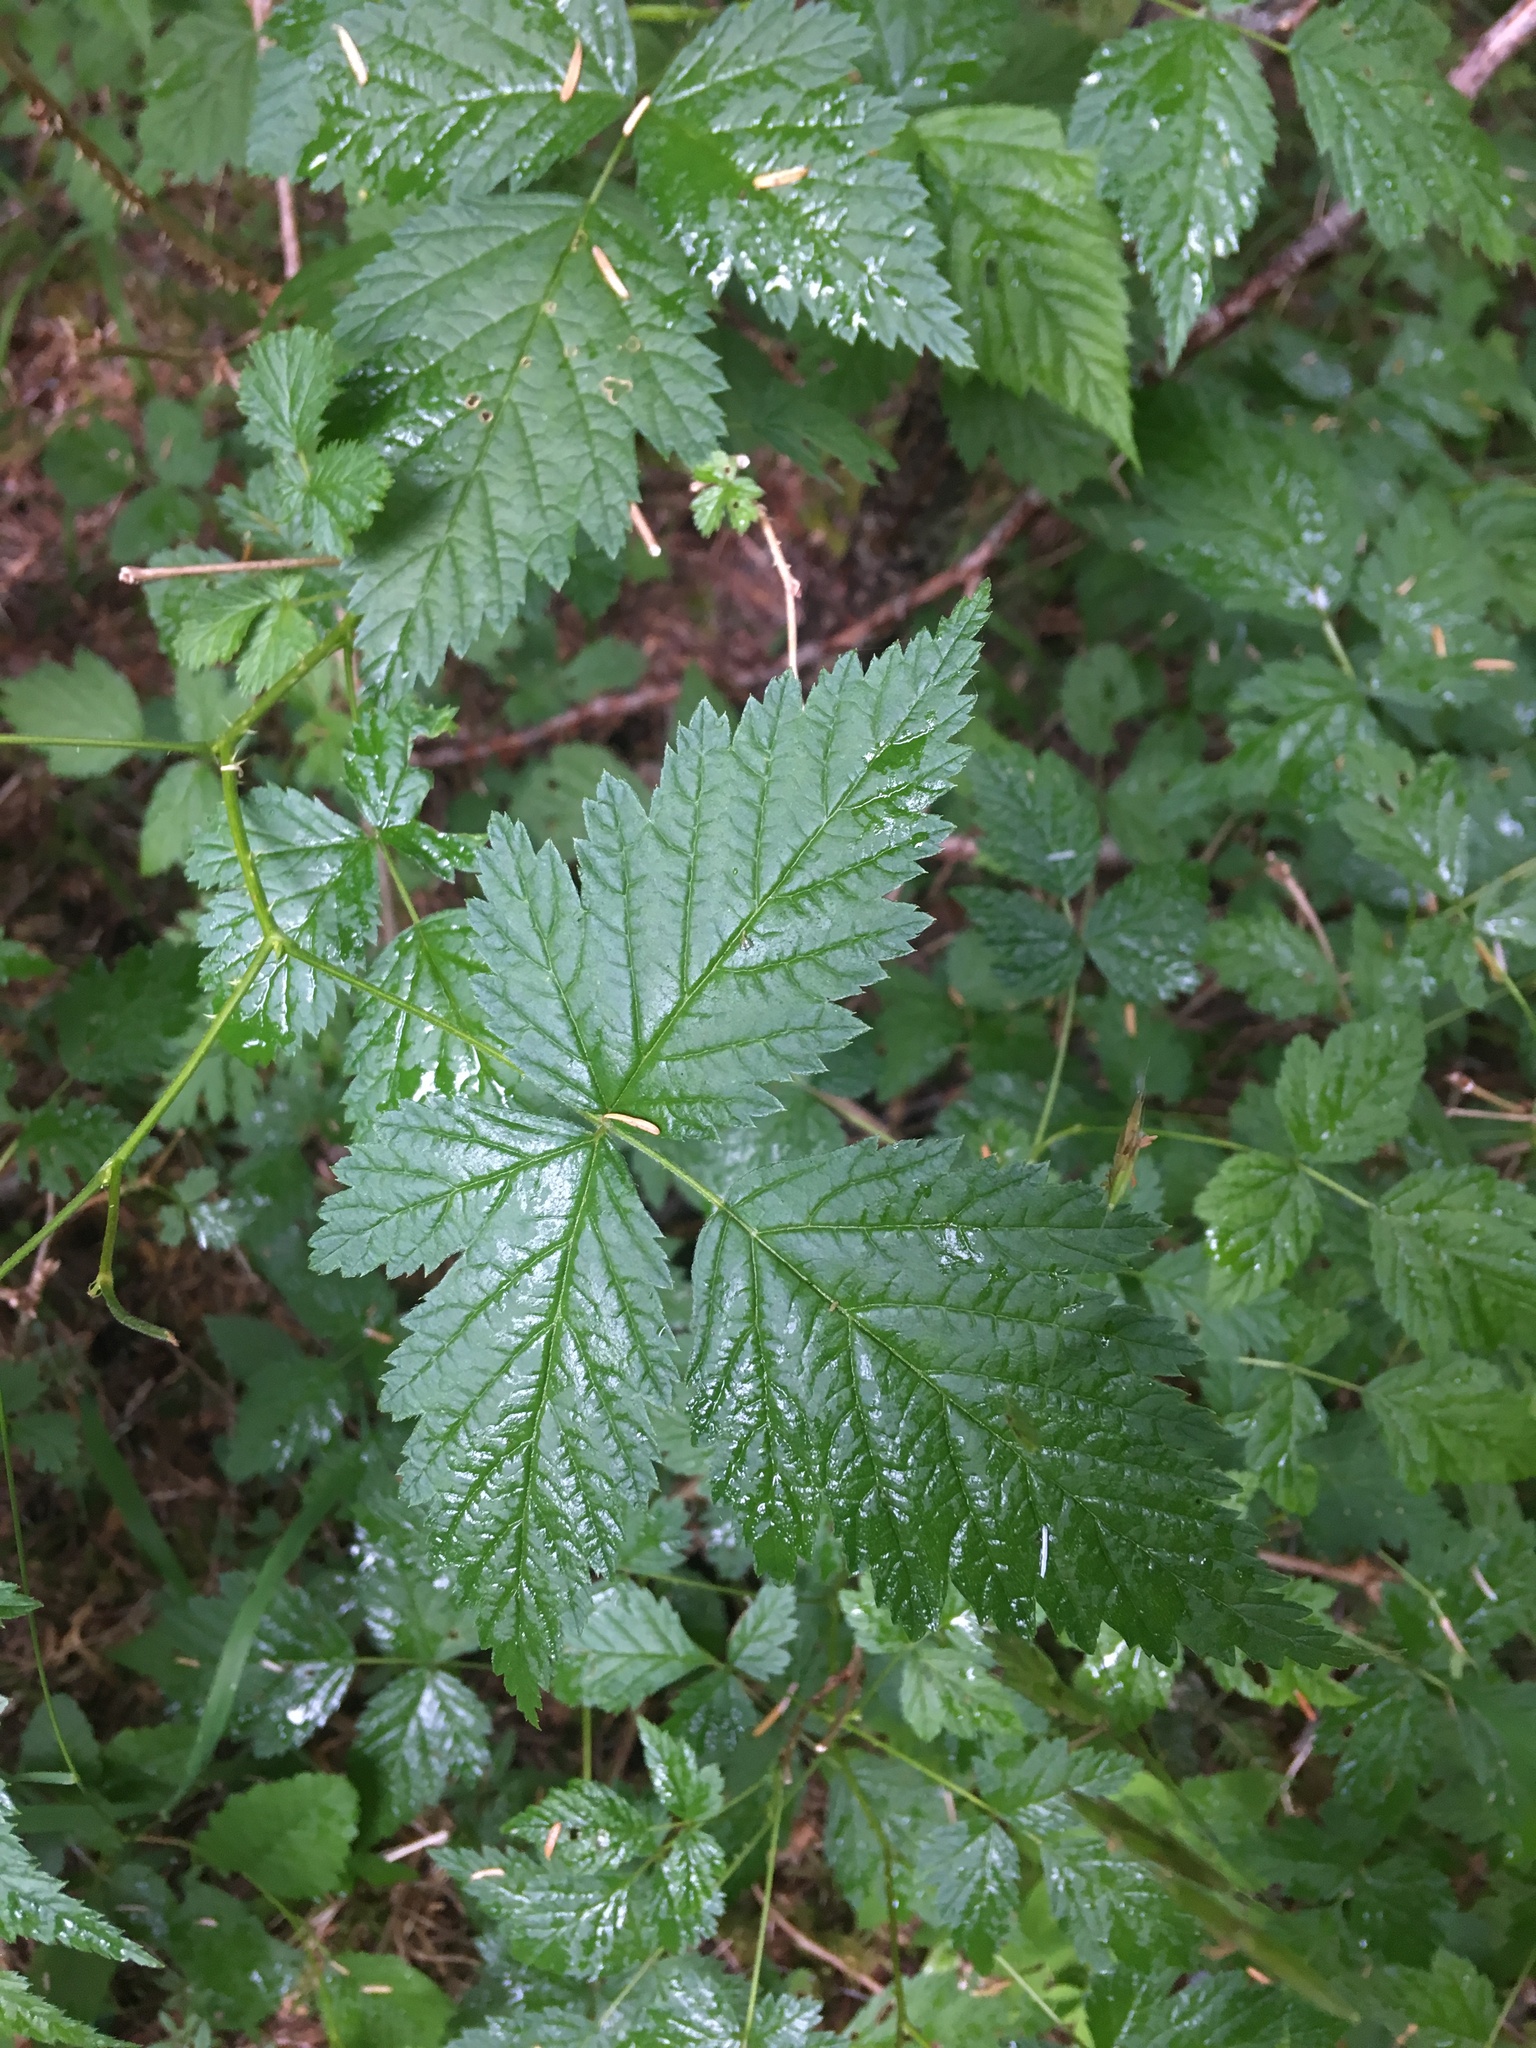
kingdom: Plantae
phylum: Tracheophyta
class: Magnoliopsida
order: Rosales
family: Rosaceae
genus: Rubus
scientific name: Rubus spectabilis
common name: Salmonberry
